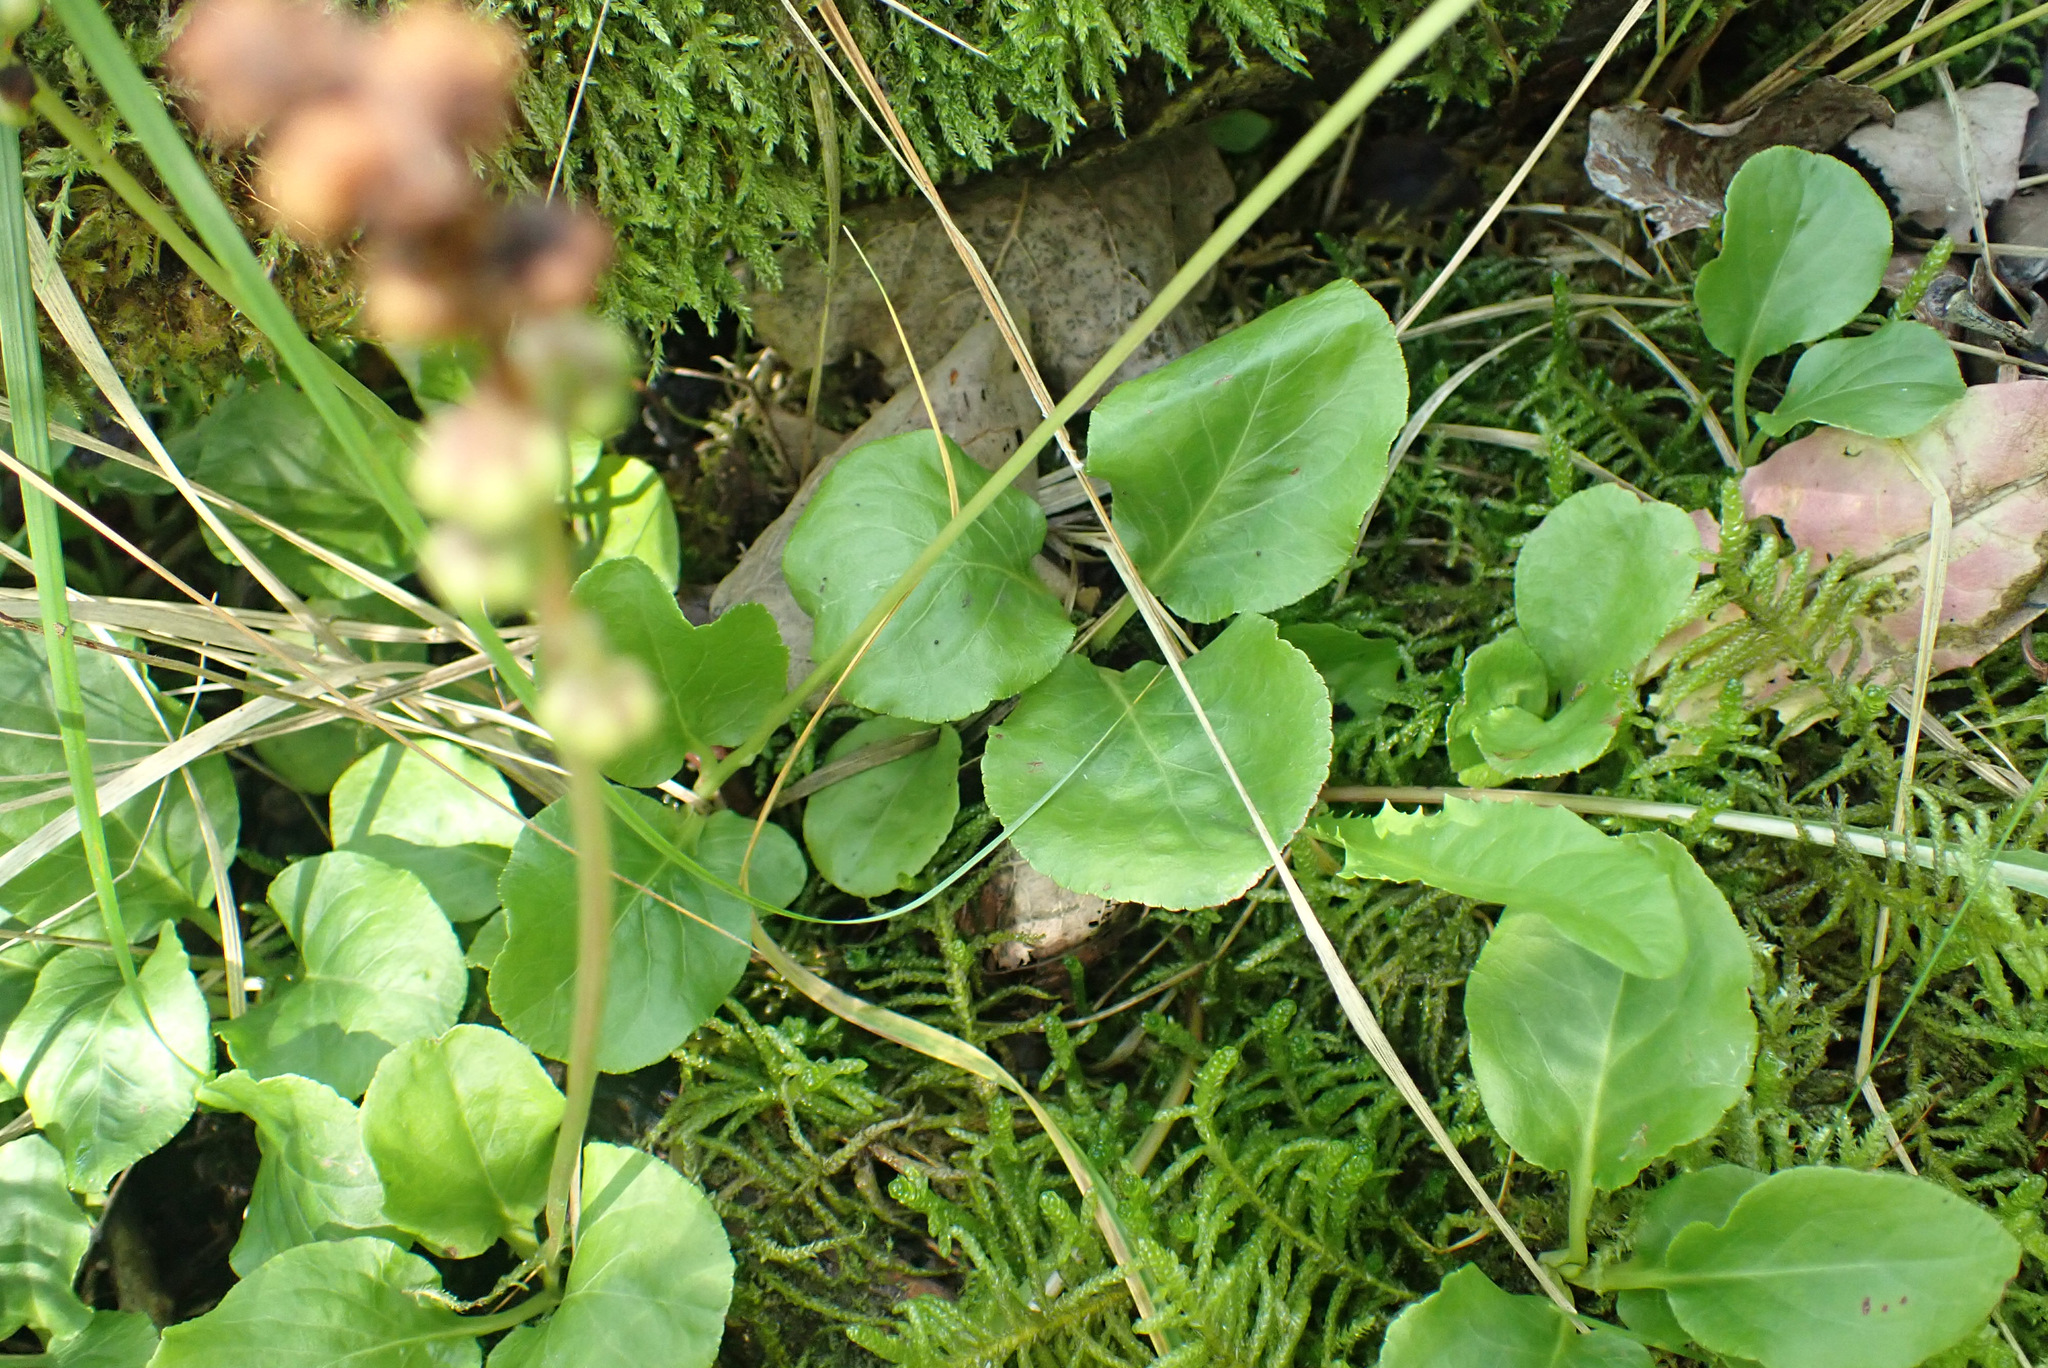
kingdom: Plantae
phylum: Tracheophyta
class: Magnoliopsida
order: Ericales
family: Ericaceae
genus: Pyrola
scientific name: Pyrola minor
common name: Common wintergreen
